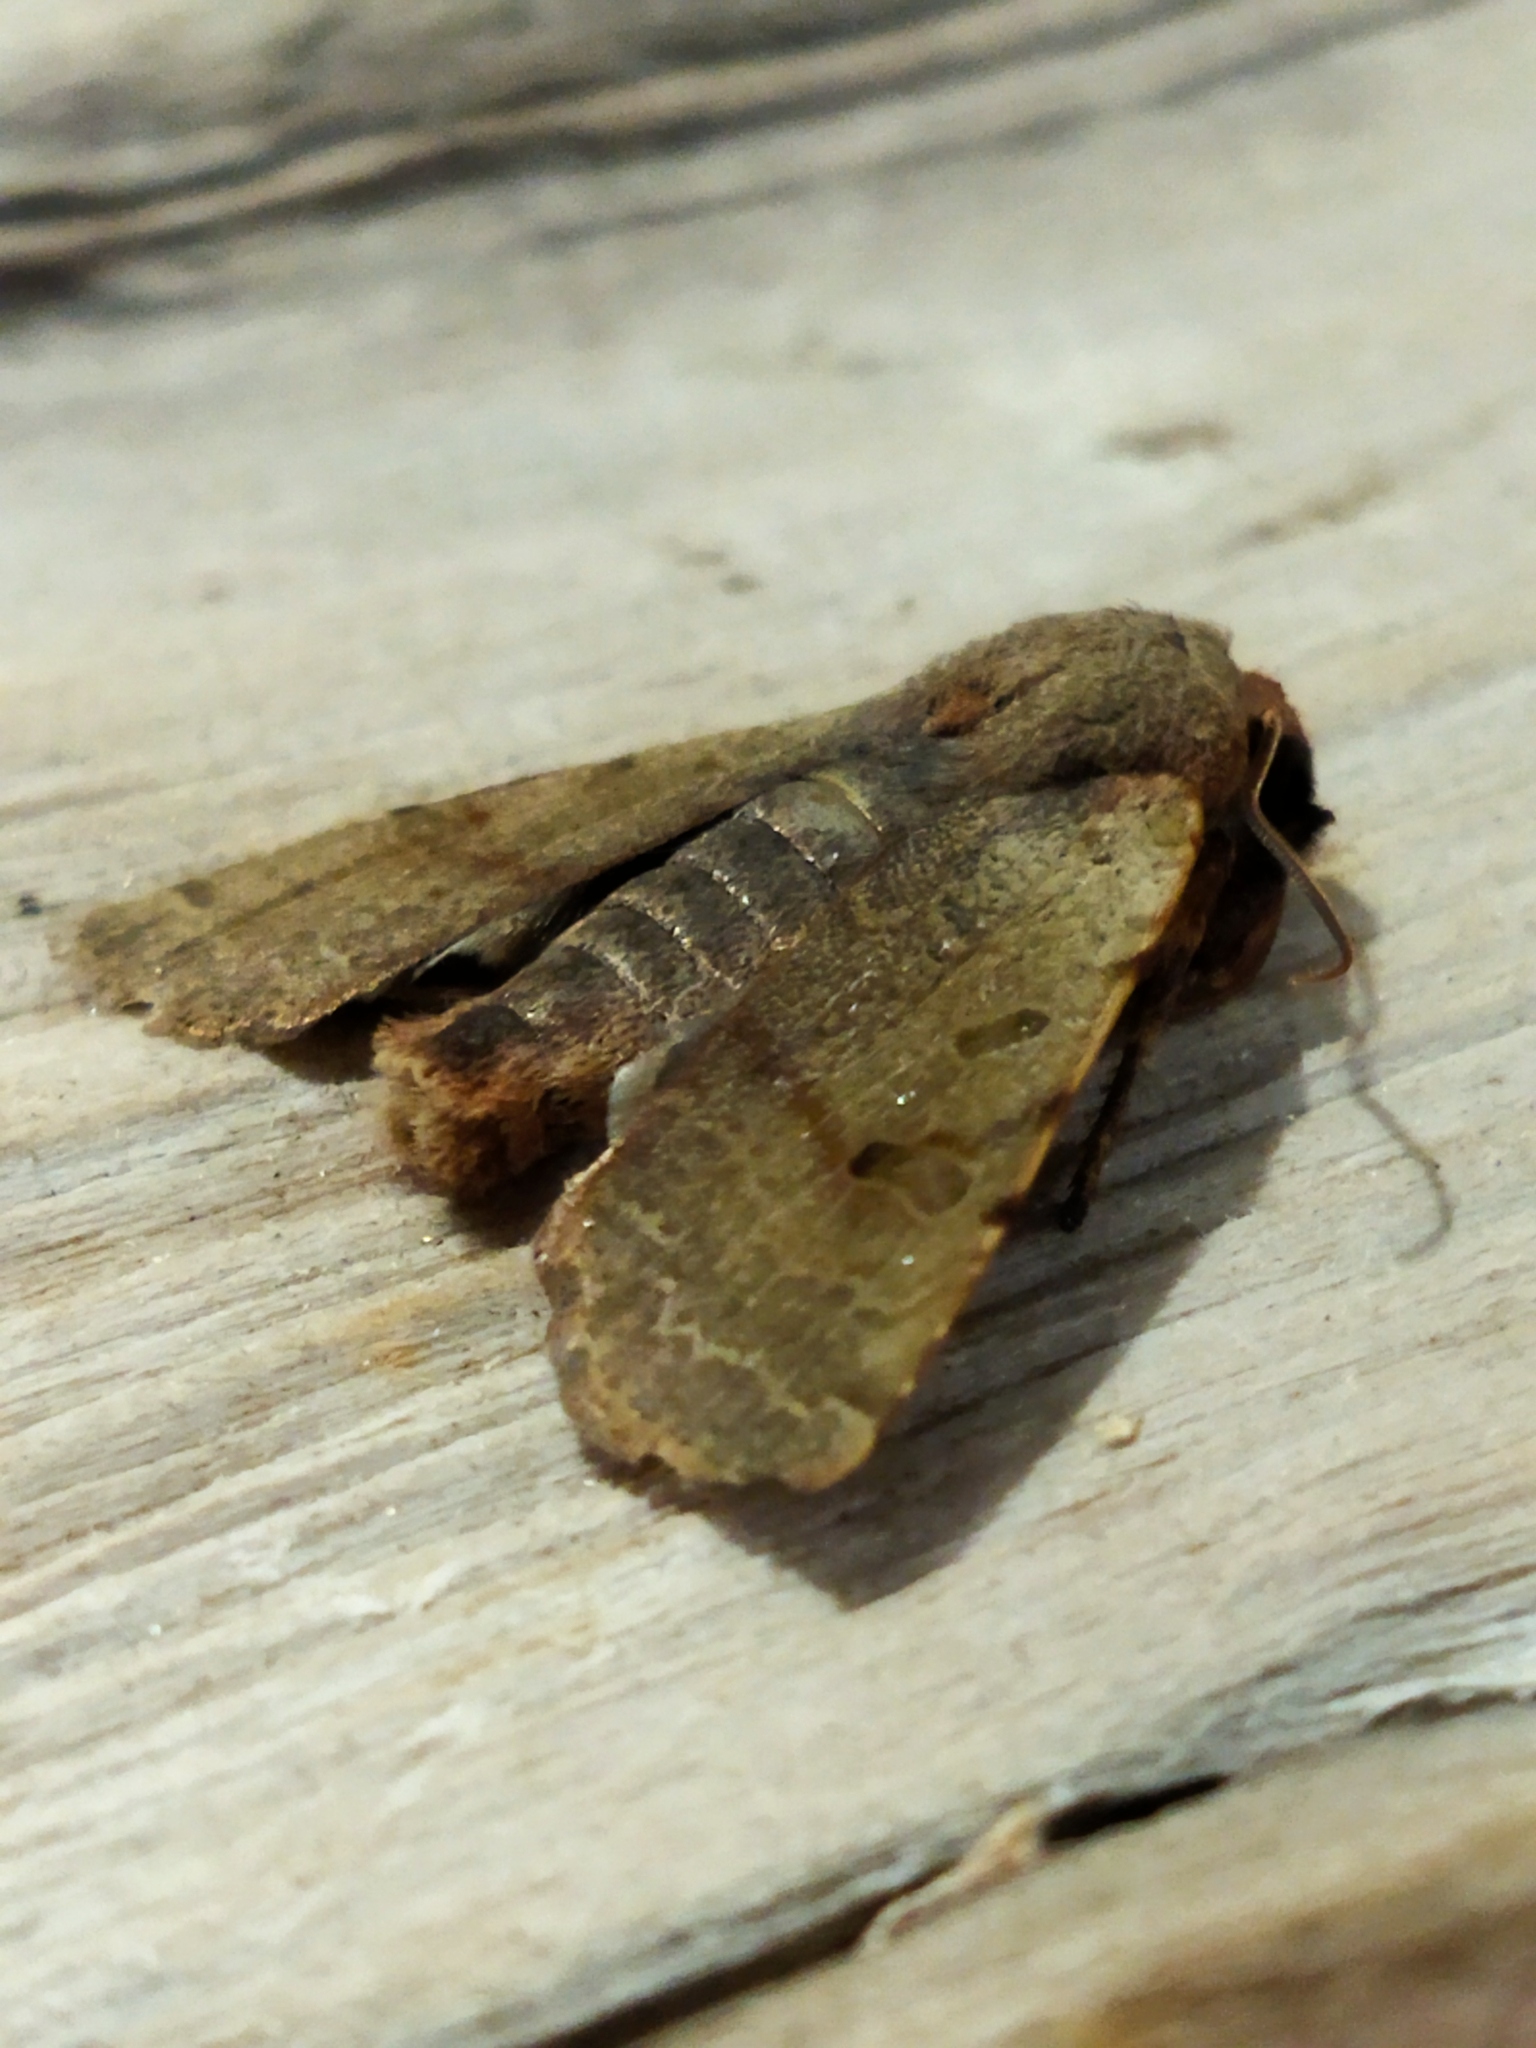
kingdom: Animalia
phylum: Arthropoda
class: Insecta
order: Lepidoptera
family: Noctuidae
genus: Agrochola
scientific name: Agrochola lychnidis
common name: Beaded chestnut
